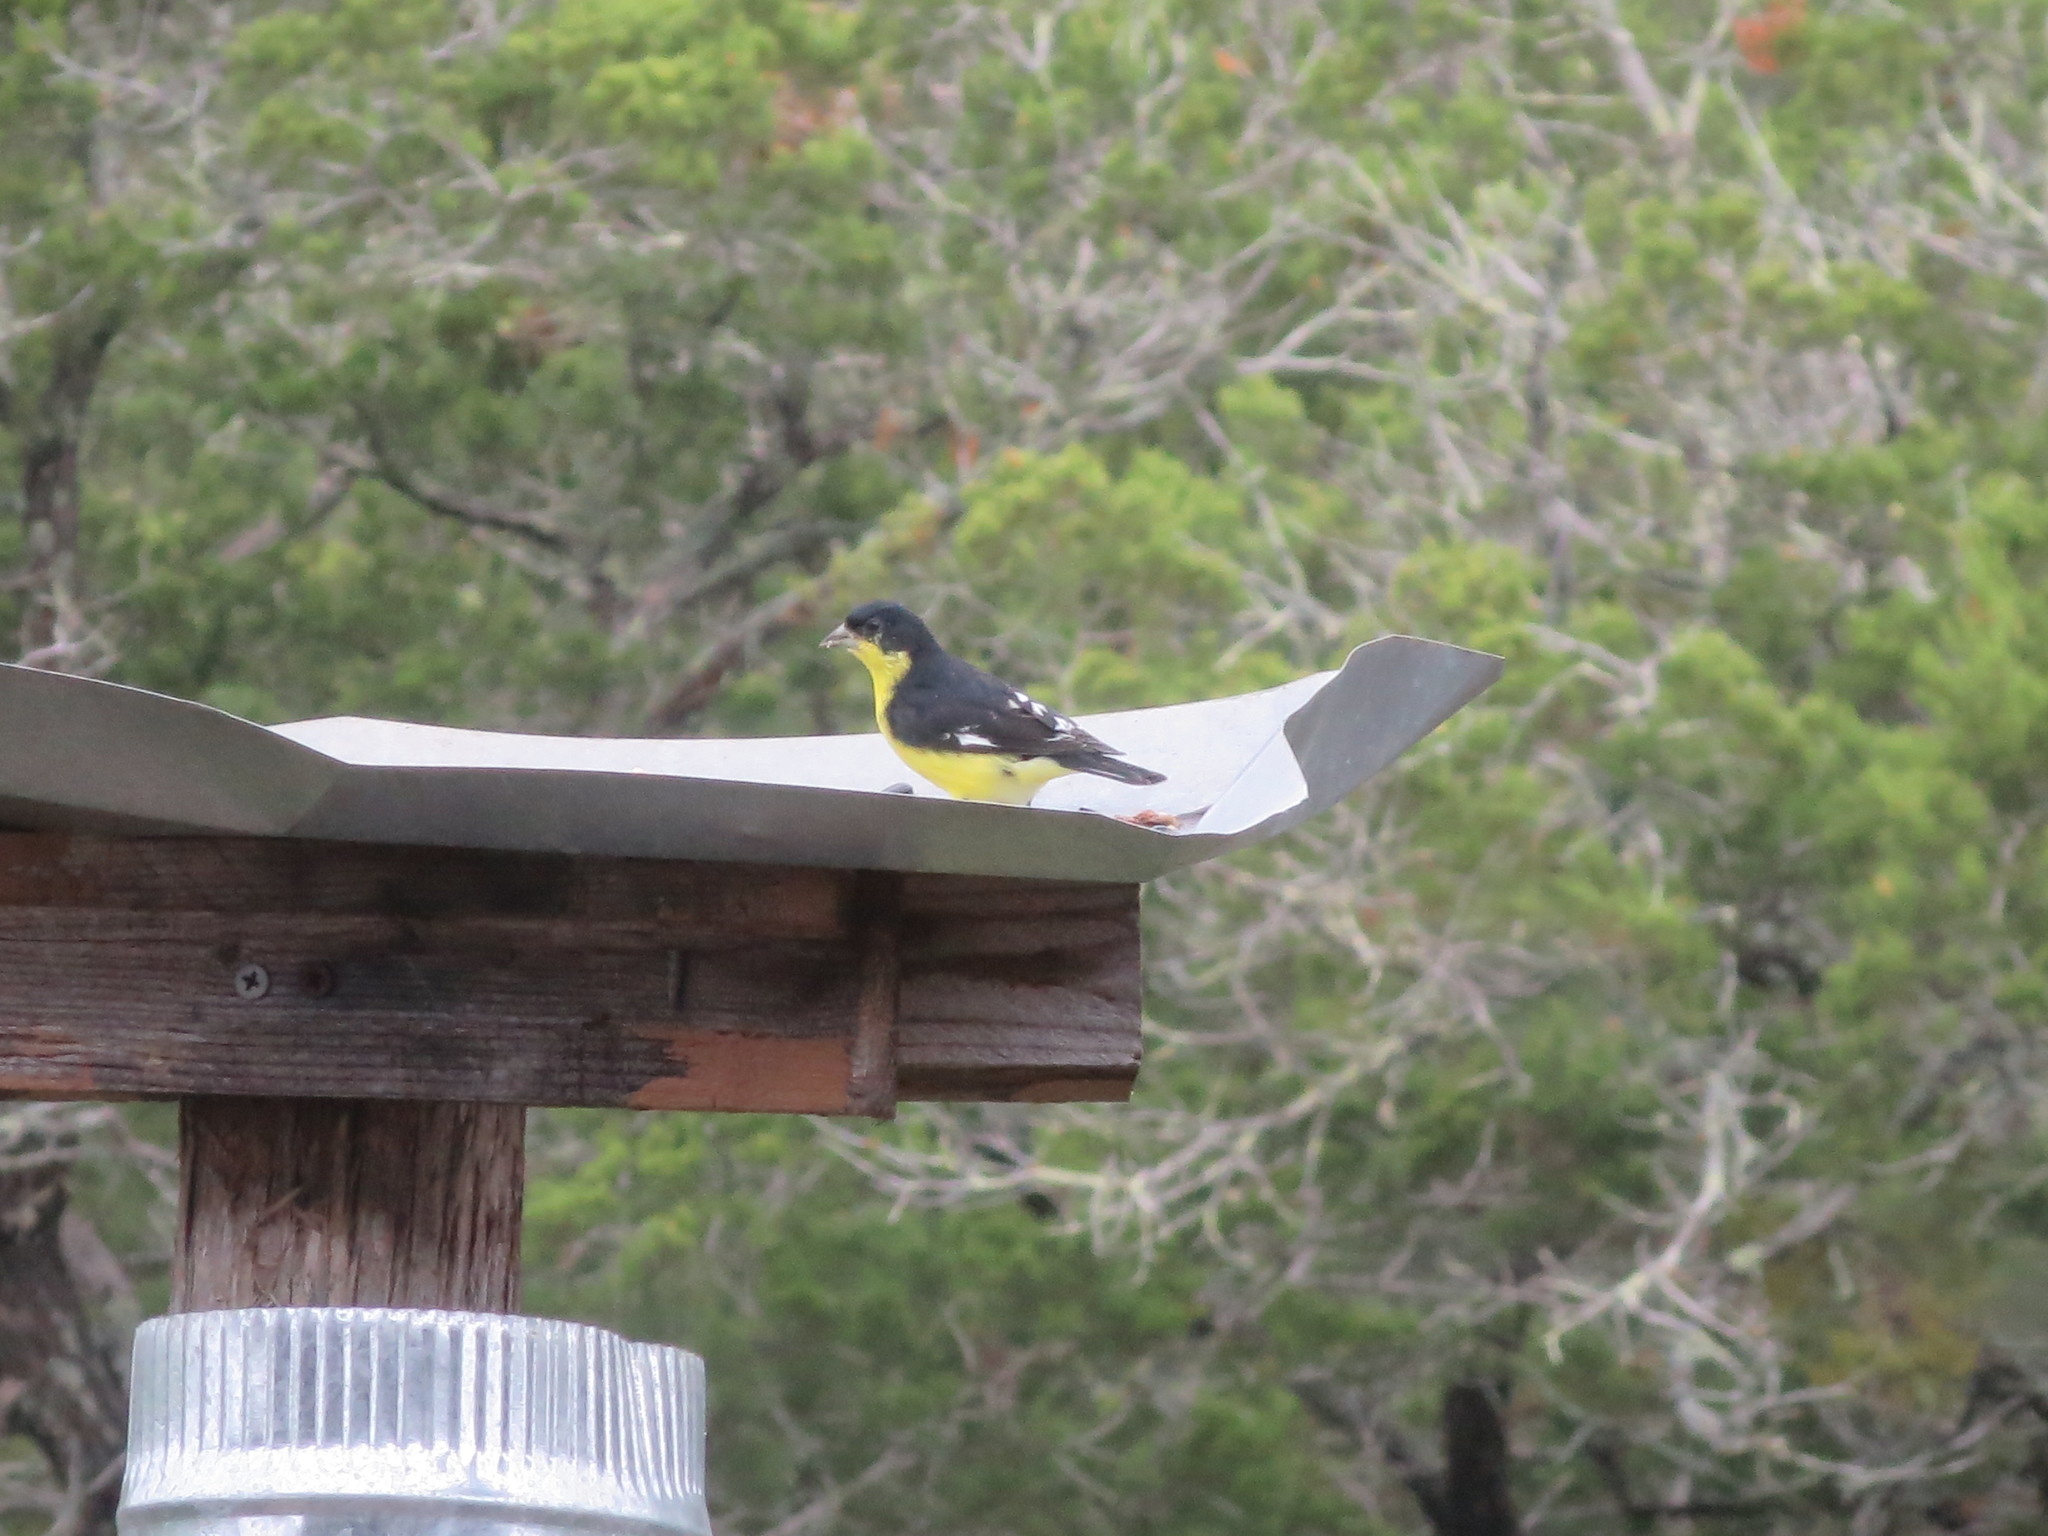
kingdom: Animalia
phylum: Chordata
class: Aves
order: Passeriformes
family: Fringillidae
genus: Spinus
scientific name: Spinus psaltria
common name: Lesser goldfinch
